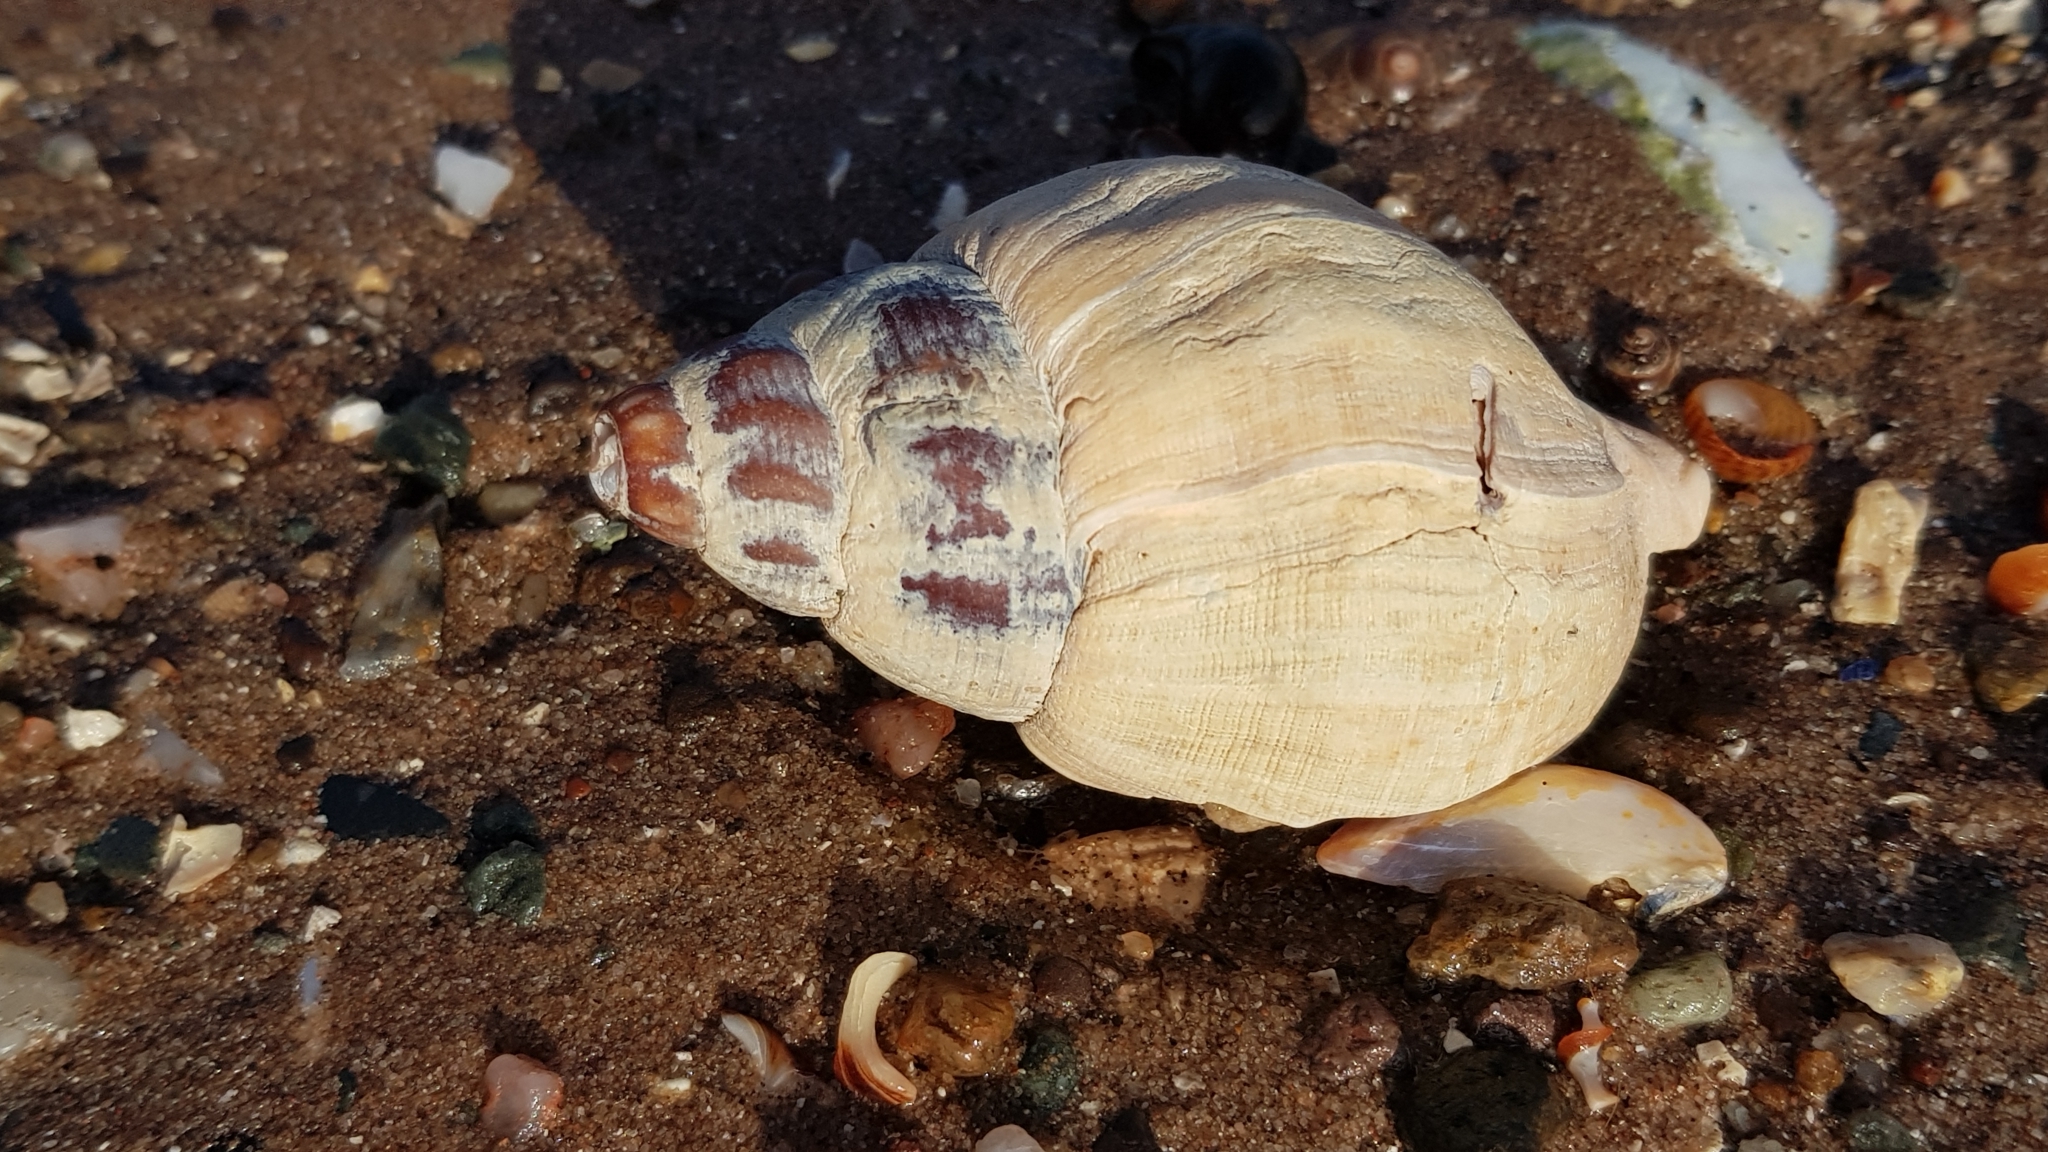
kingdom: Animalia
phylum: Mollusca
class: Gastropoda
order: Neogastropoda
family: Buccinidae
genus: Buccinum
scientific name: Buccinum undatum
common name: Common whelk
